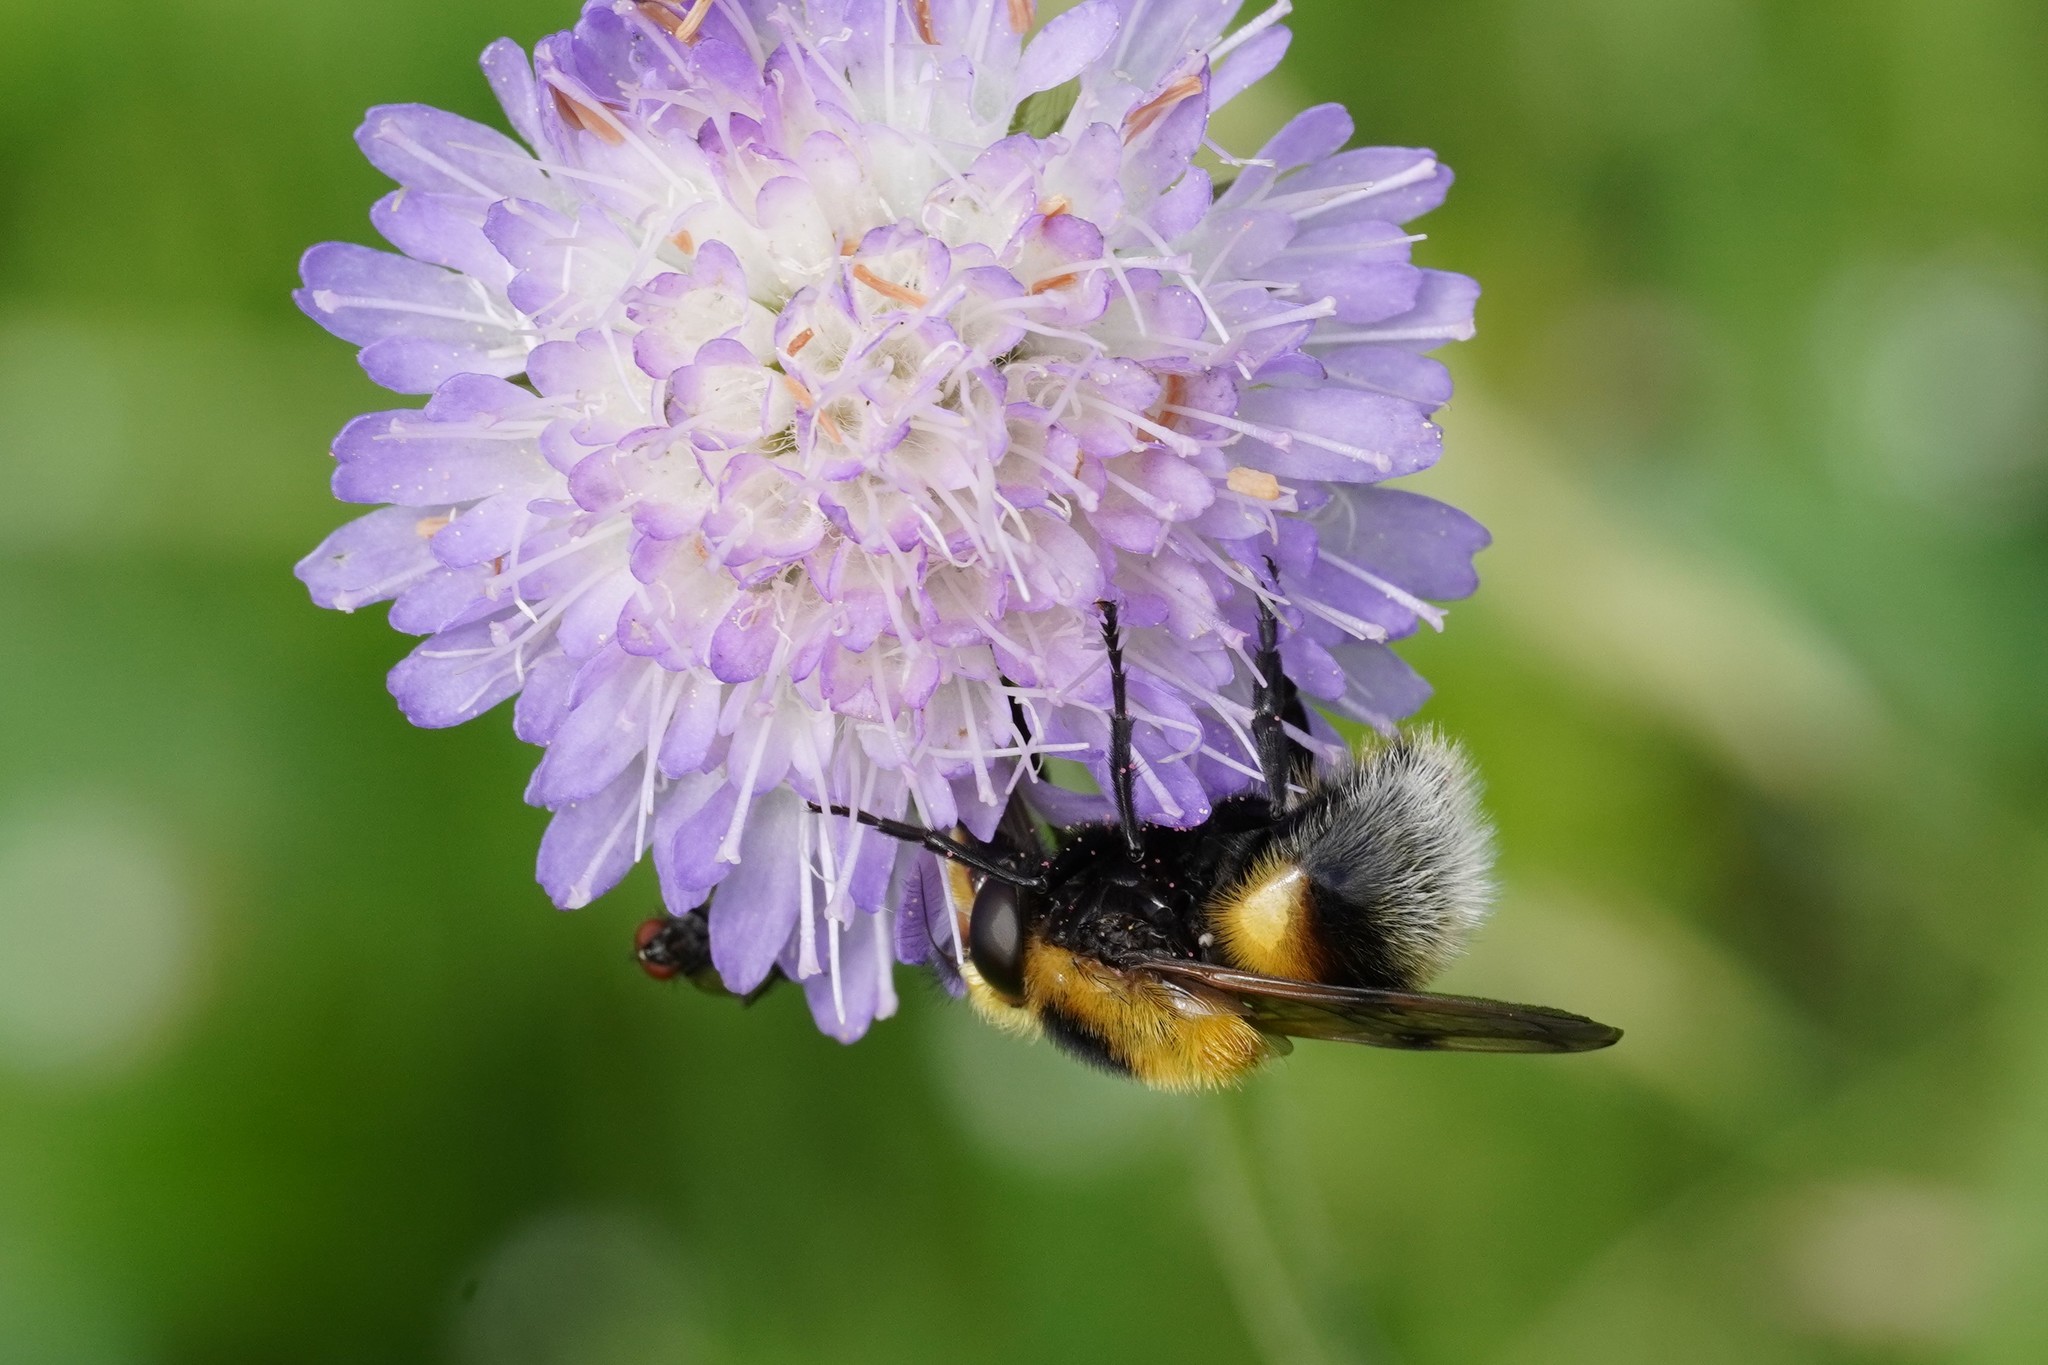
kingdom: Animalia
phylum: Arthropoda
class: Insecta
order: Diptera
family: Syrphidae
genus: Volucella
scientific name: Volucella bombylans
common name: Bumble bee hover fly
